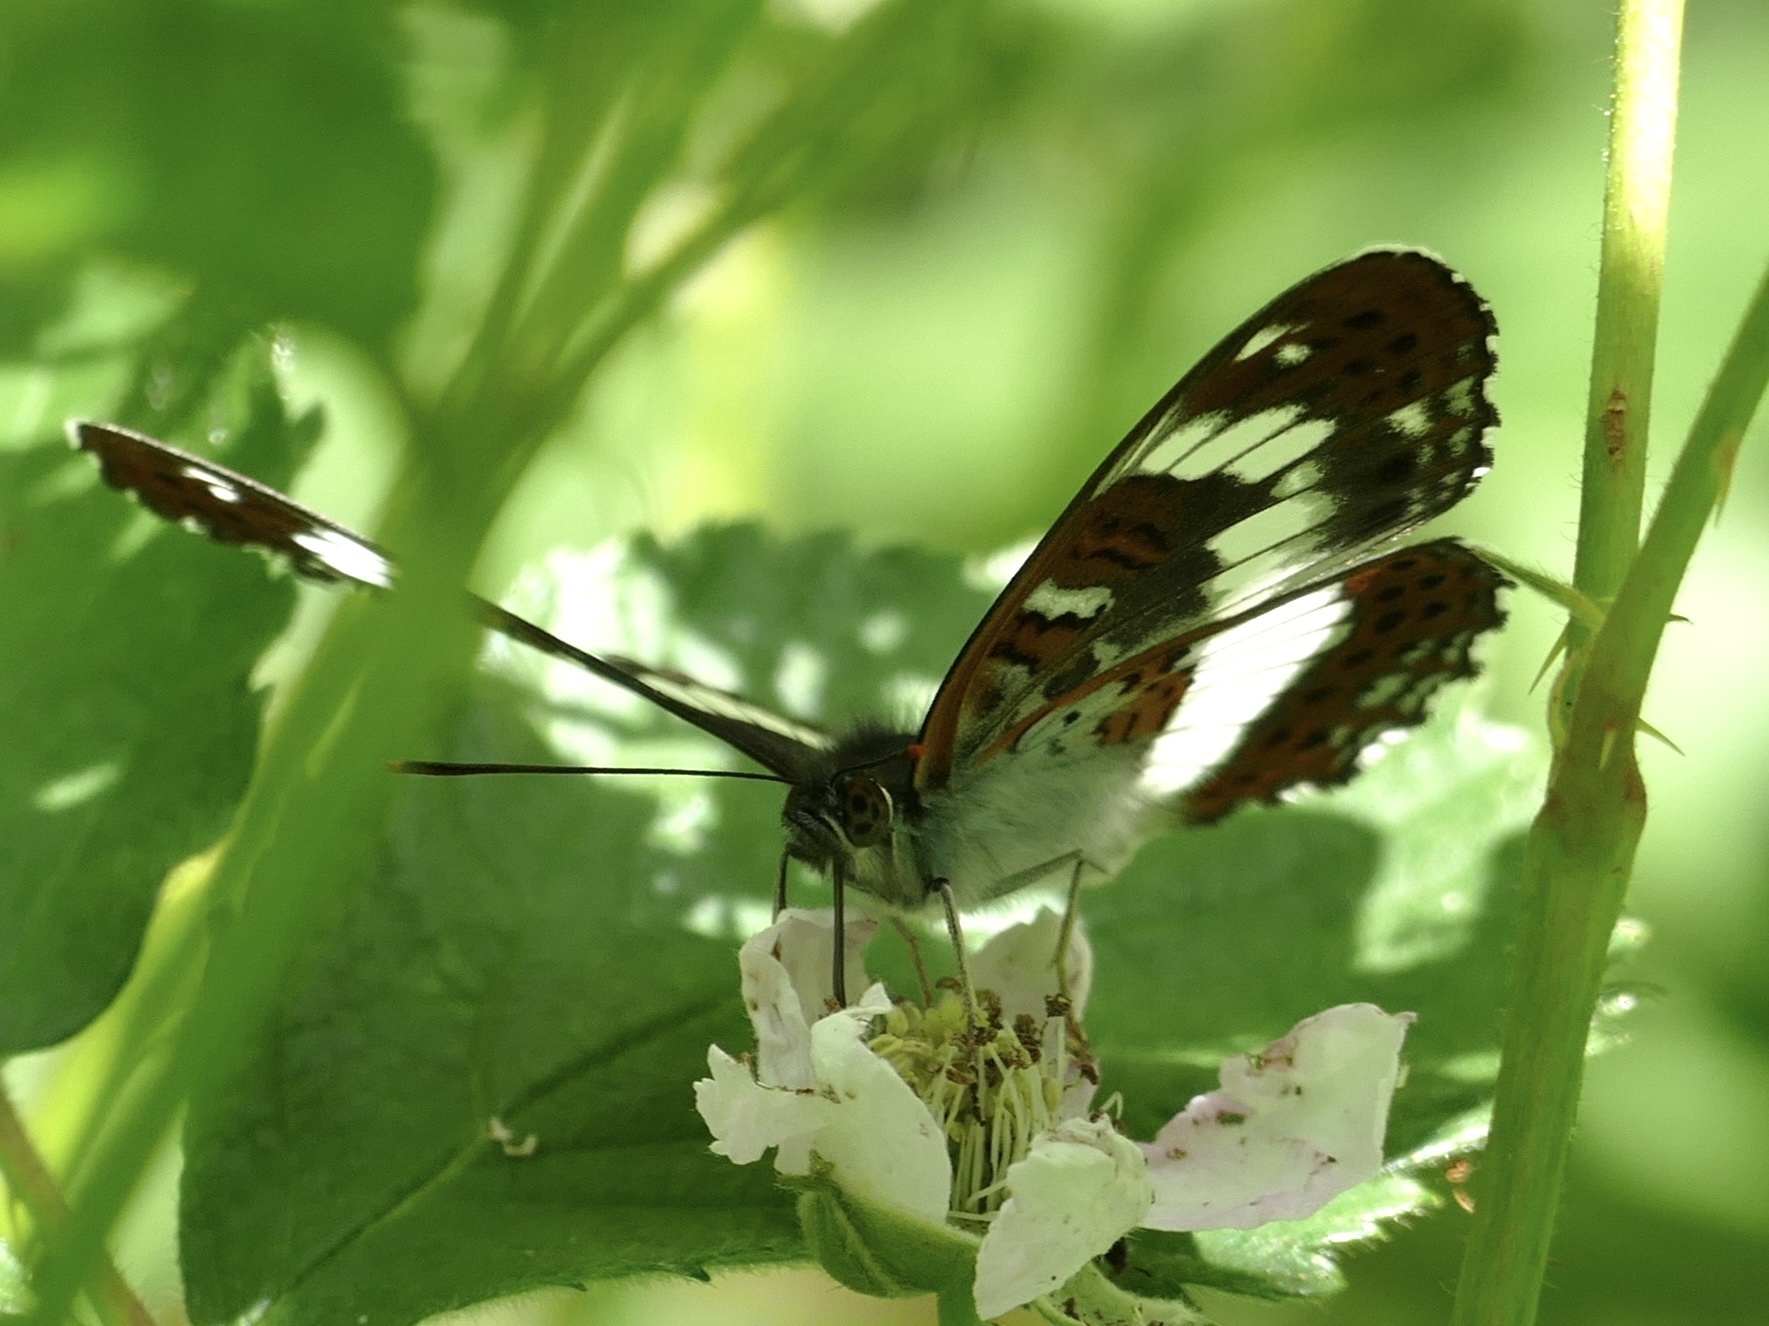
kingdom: Animalia
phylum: Arthropoda
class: Insecta
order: Lepidoptera
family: Nymphalidae
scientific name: Nymphalidae
